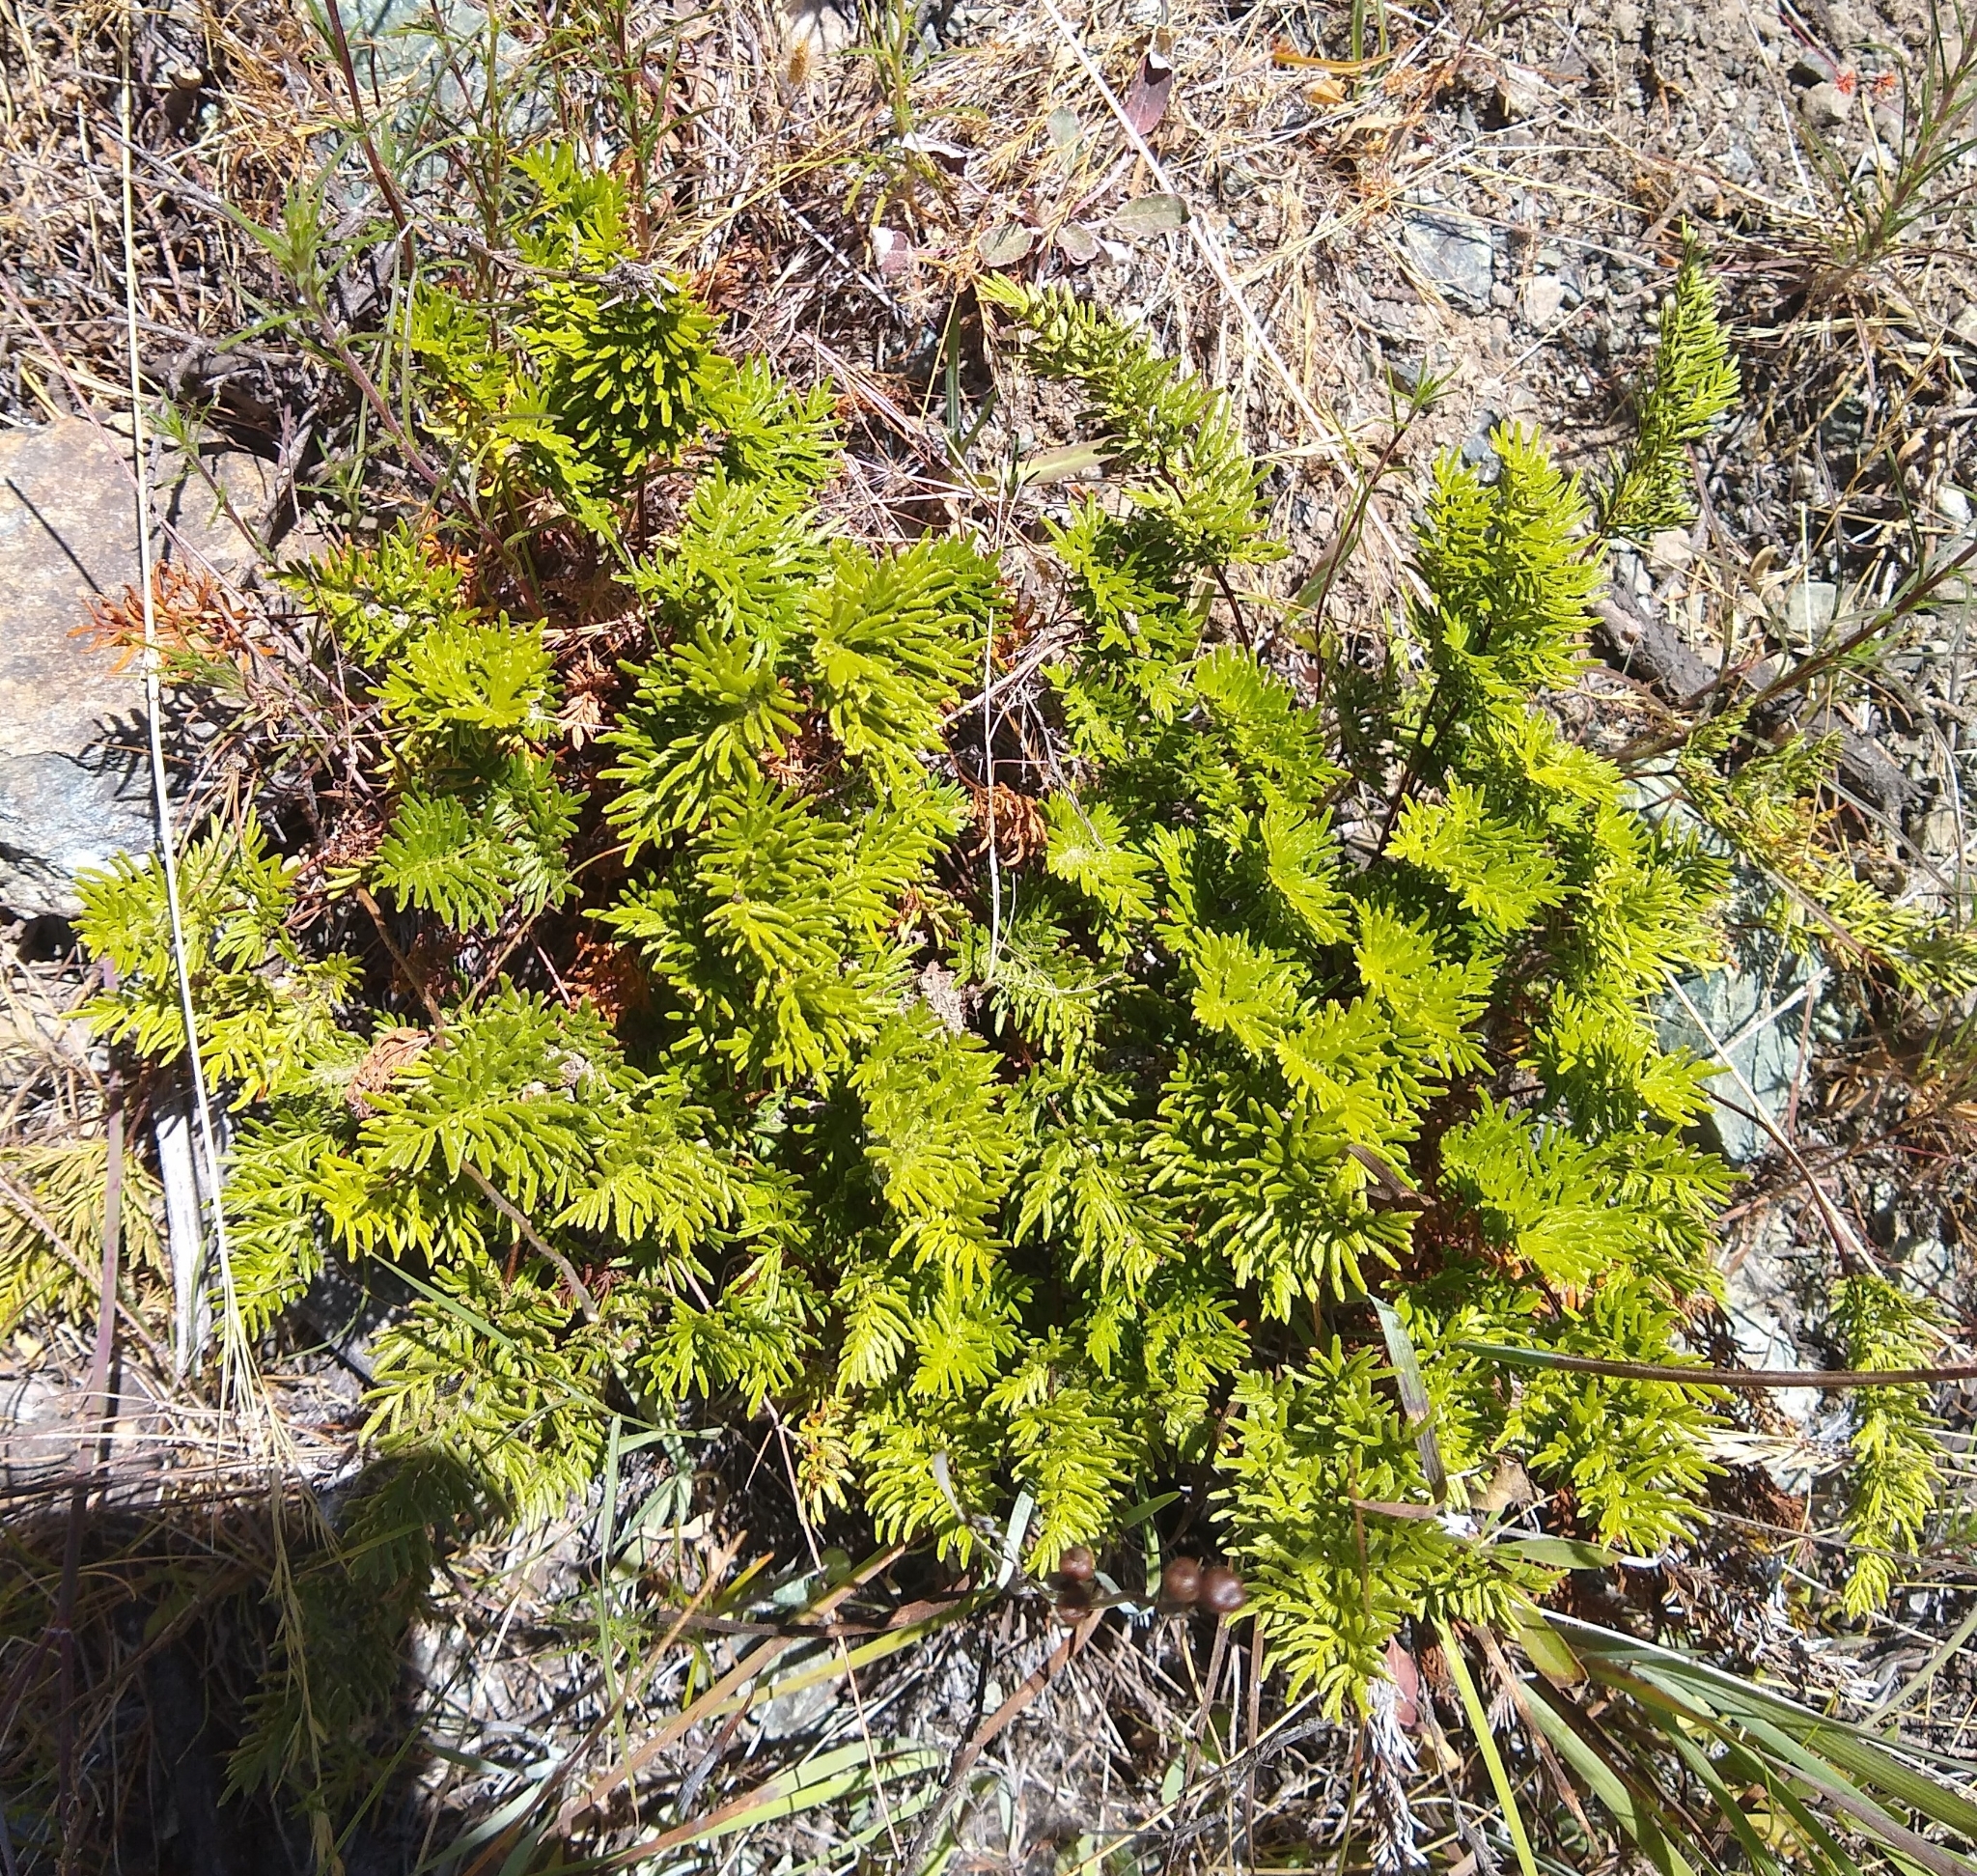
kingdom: Plantae
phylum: Tracheophyta
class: Polypodiopsida
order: Polypodiales
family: Pteridaceae
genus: Aspidotis
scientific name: Aspidotis densa
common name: Indian's dream
